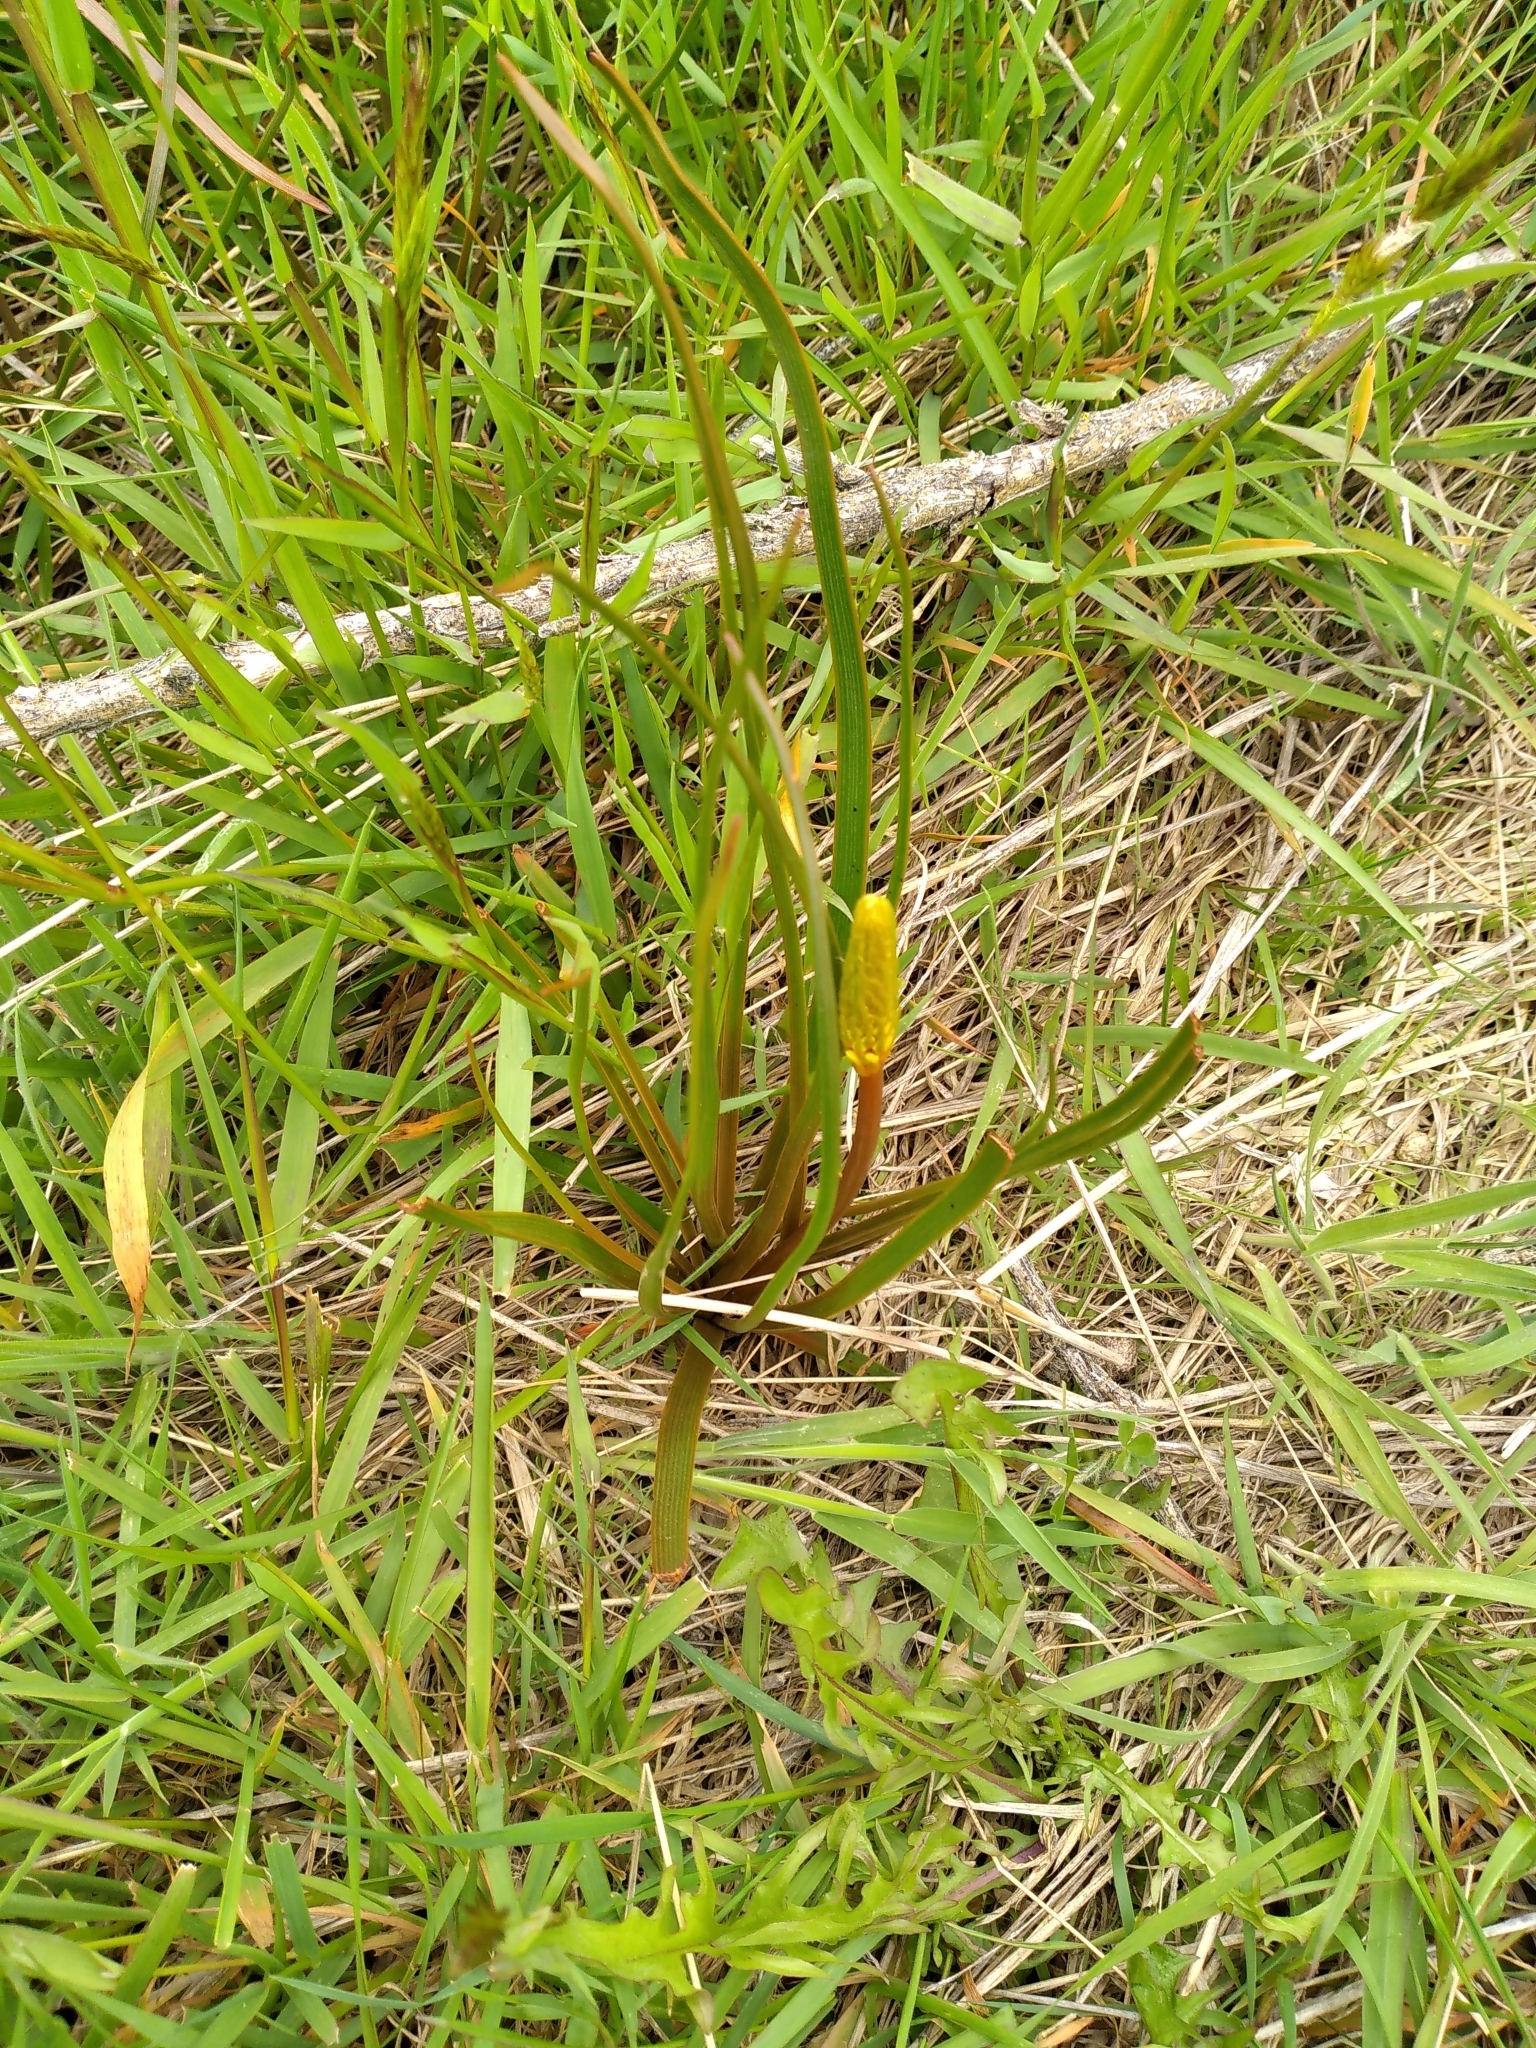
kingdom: Plantae
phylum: Tracheophyta
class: Liliopsida
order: Asparagales
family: Asphodelaceae
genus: Bulbinella
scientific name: Bulbinella angustifolia
